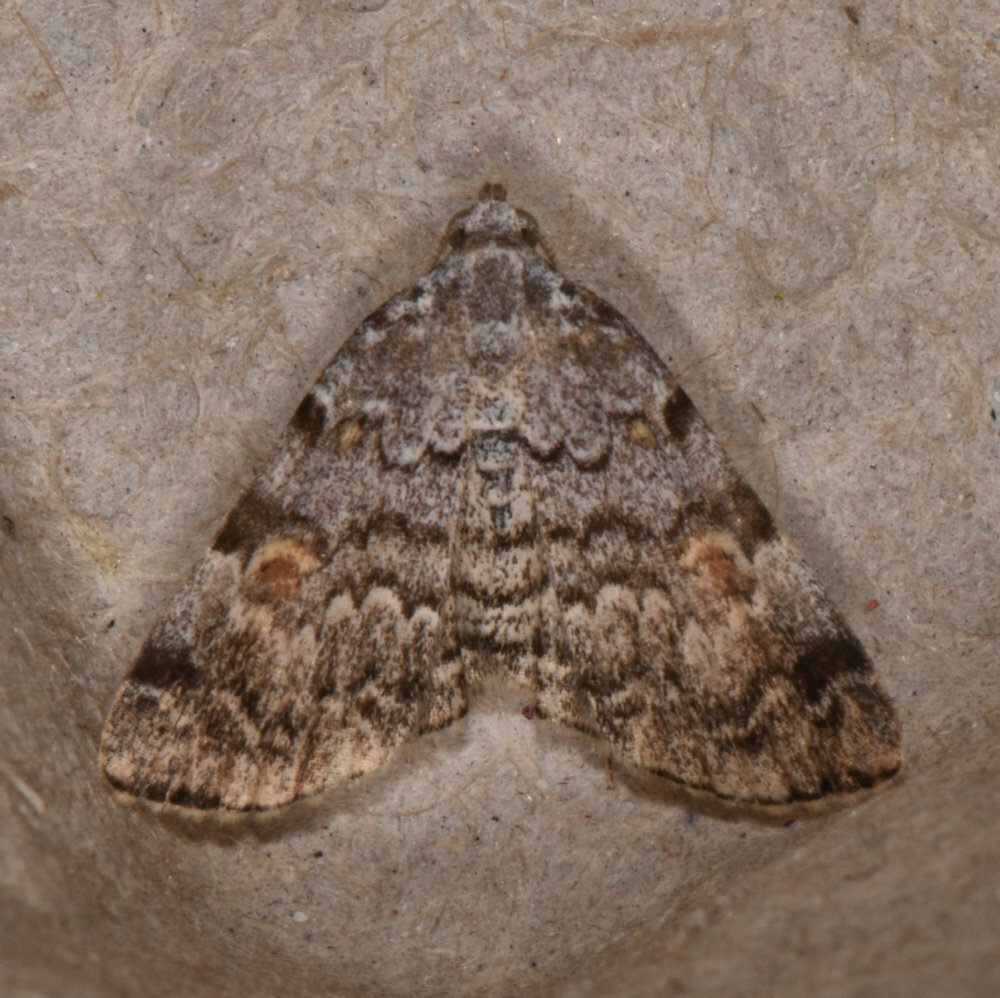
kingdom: Animalia
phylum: Arthropoda
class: Insecta
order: Lepidoptera
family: Erebidae
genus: Idia
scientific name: Idia americalis
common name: American idia moth
